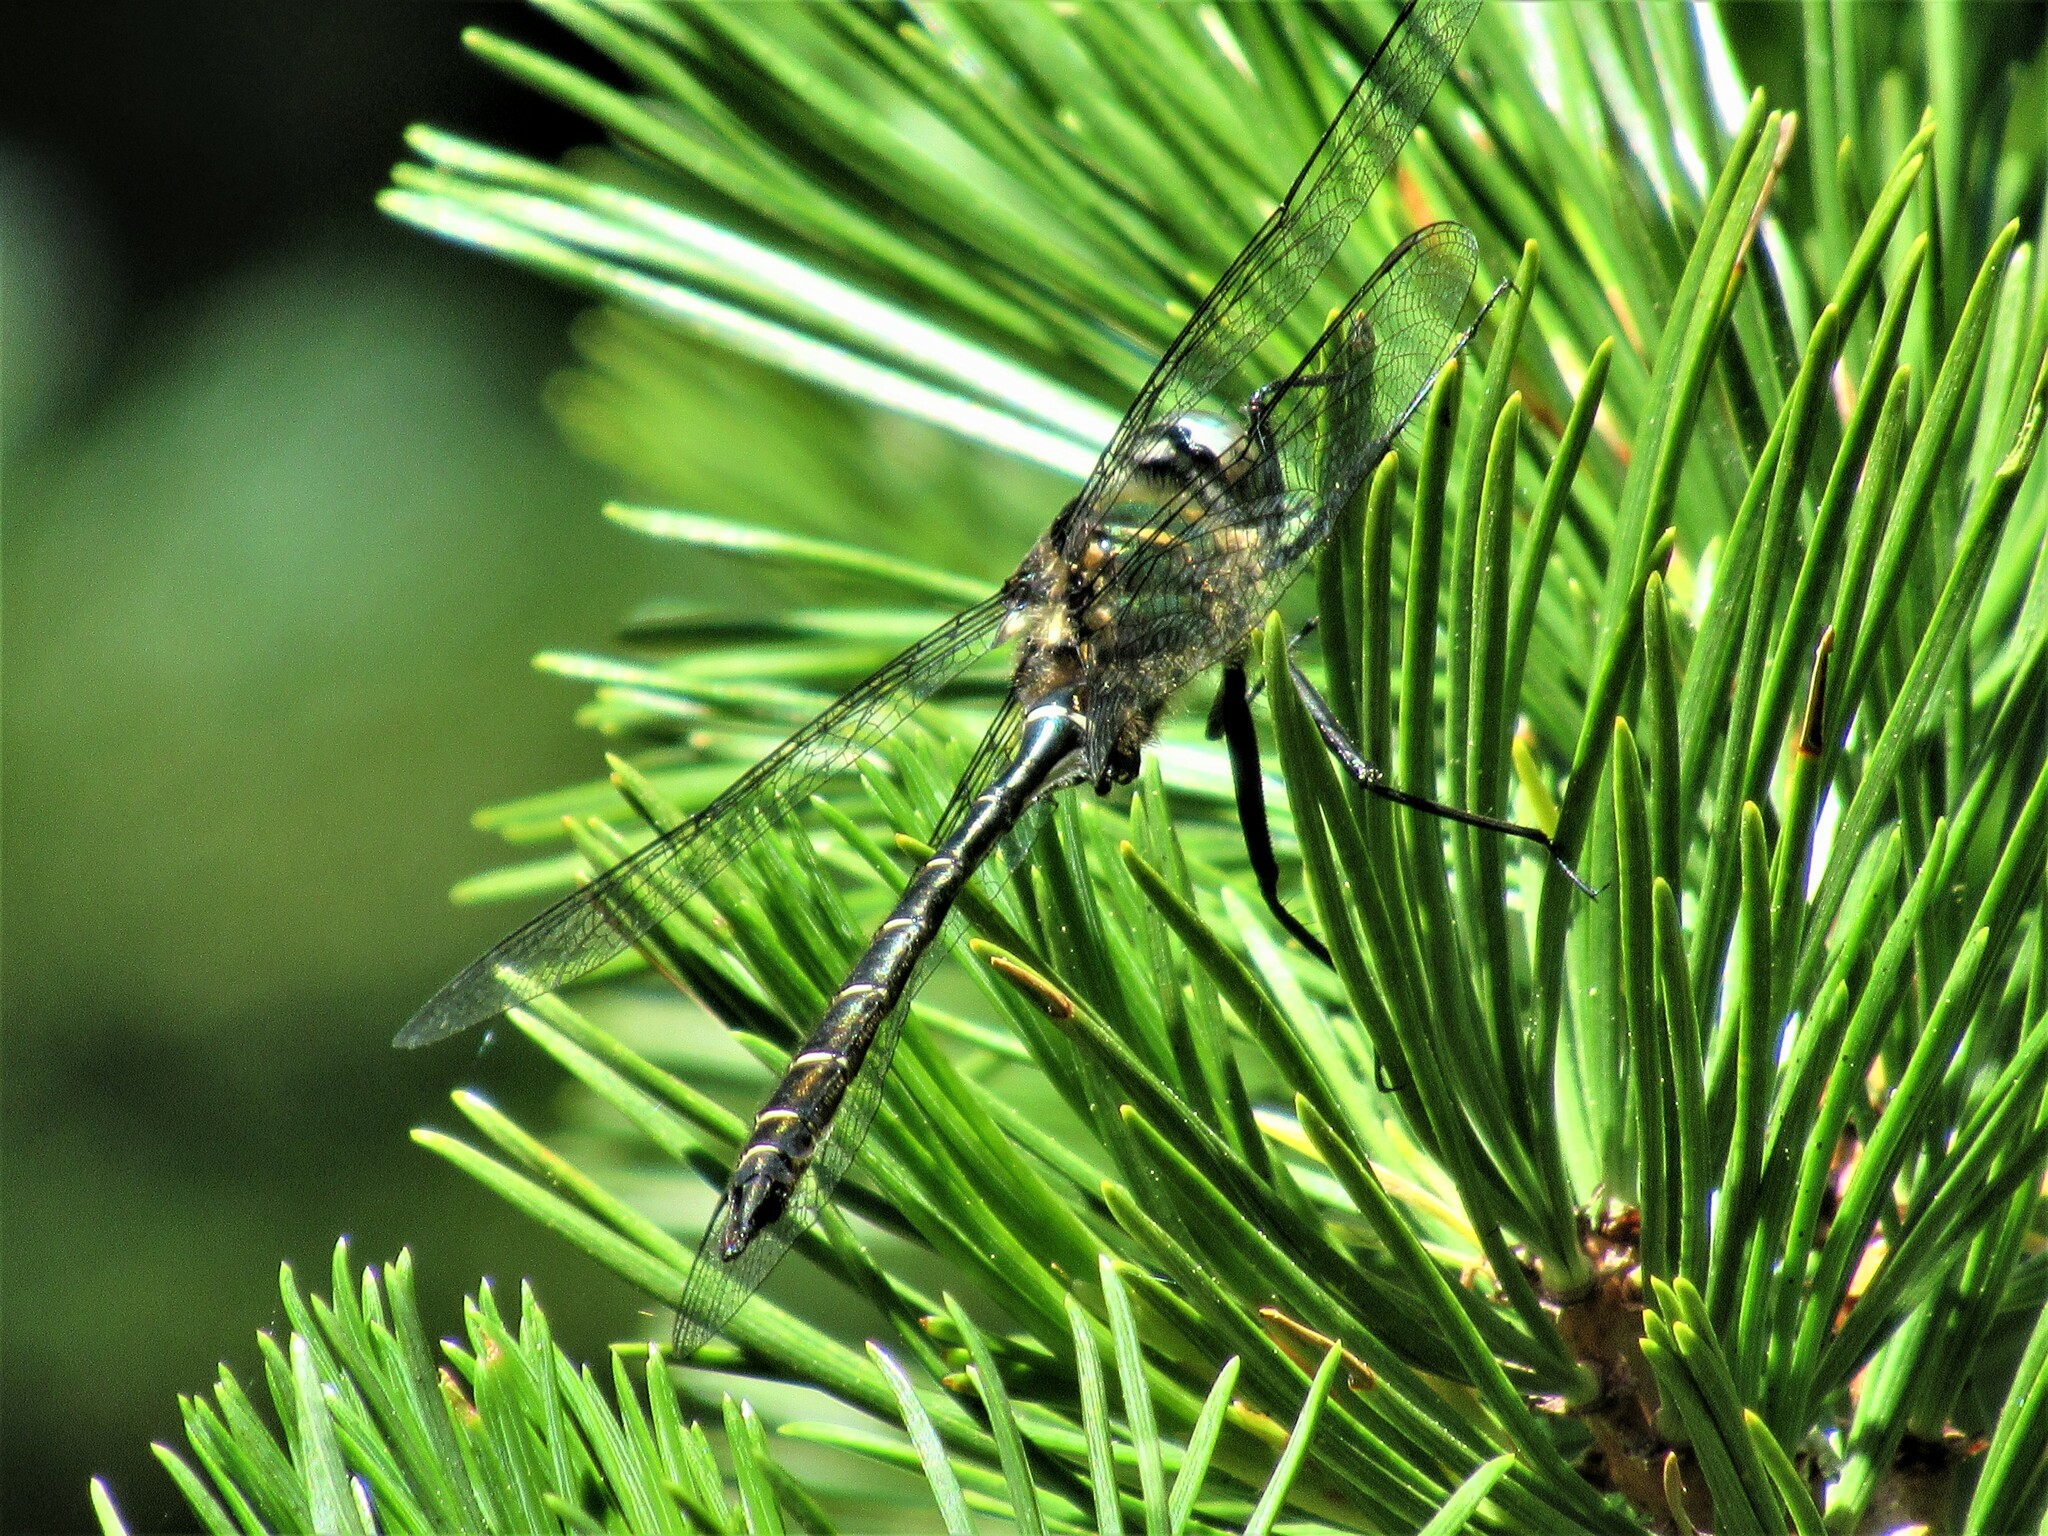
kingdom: Animalia
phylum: Arthropoda
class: Insecta
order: Odonata
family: Corduliidae
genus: Somatochlora
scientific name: Somatochlora albicincta
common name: Ringed emerald
